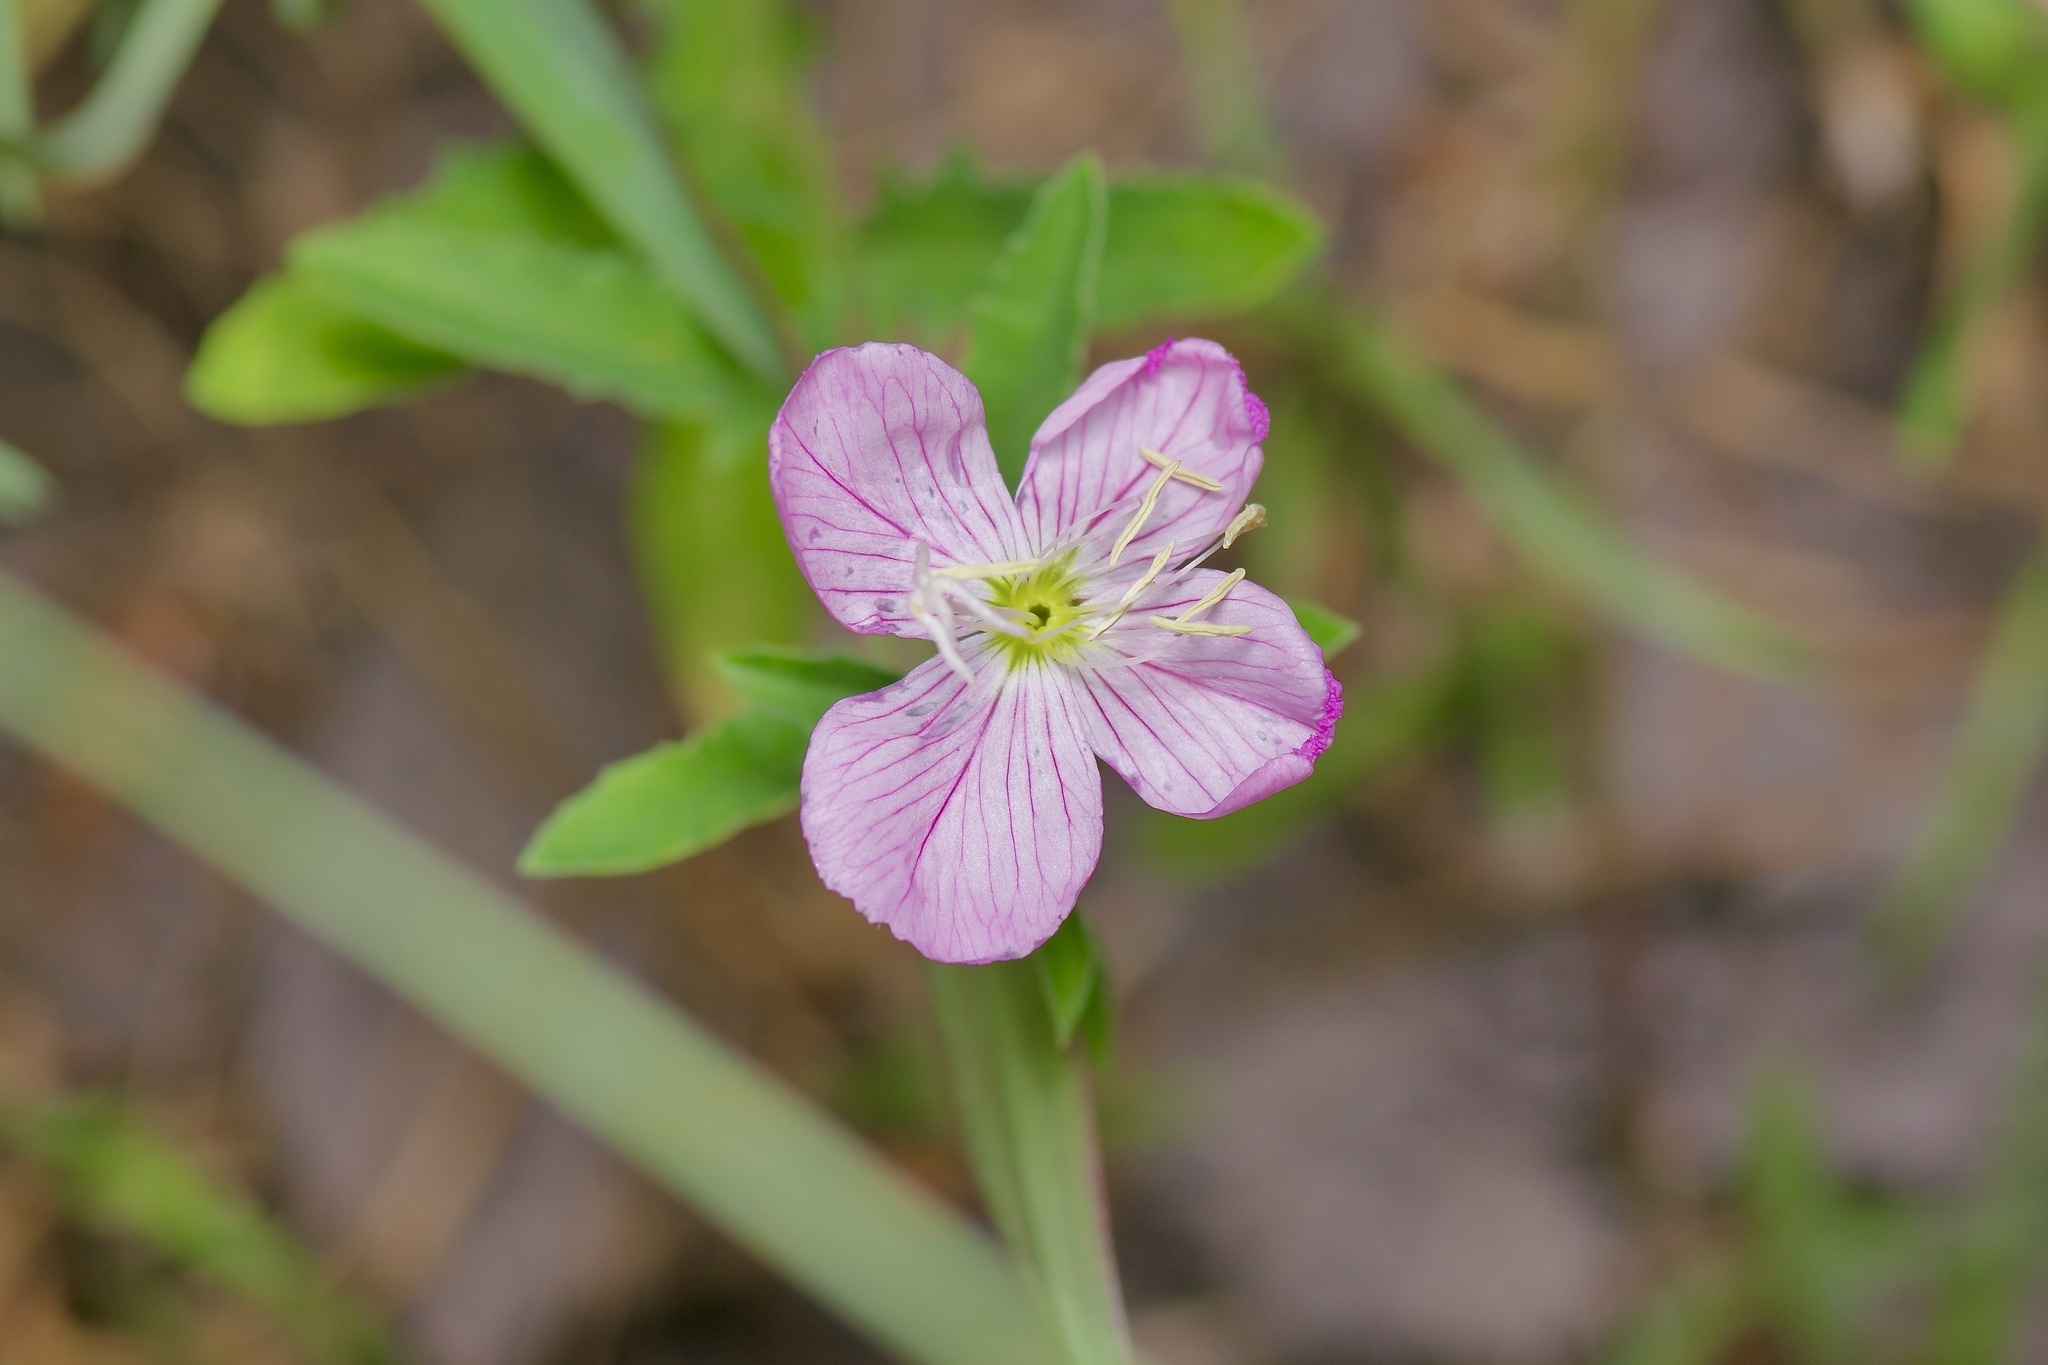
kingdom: Plantae
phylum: Tracheophyta
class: Magnoliopsida
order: Myrtales
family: Onagraceae
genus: Oenothera
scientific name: Oenothera speciosa
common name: White evening-primrose
